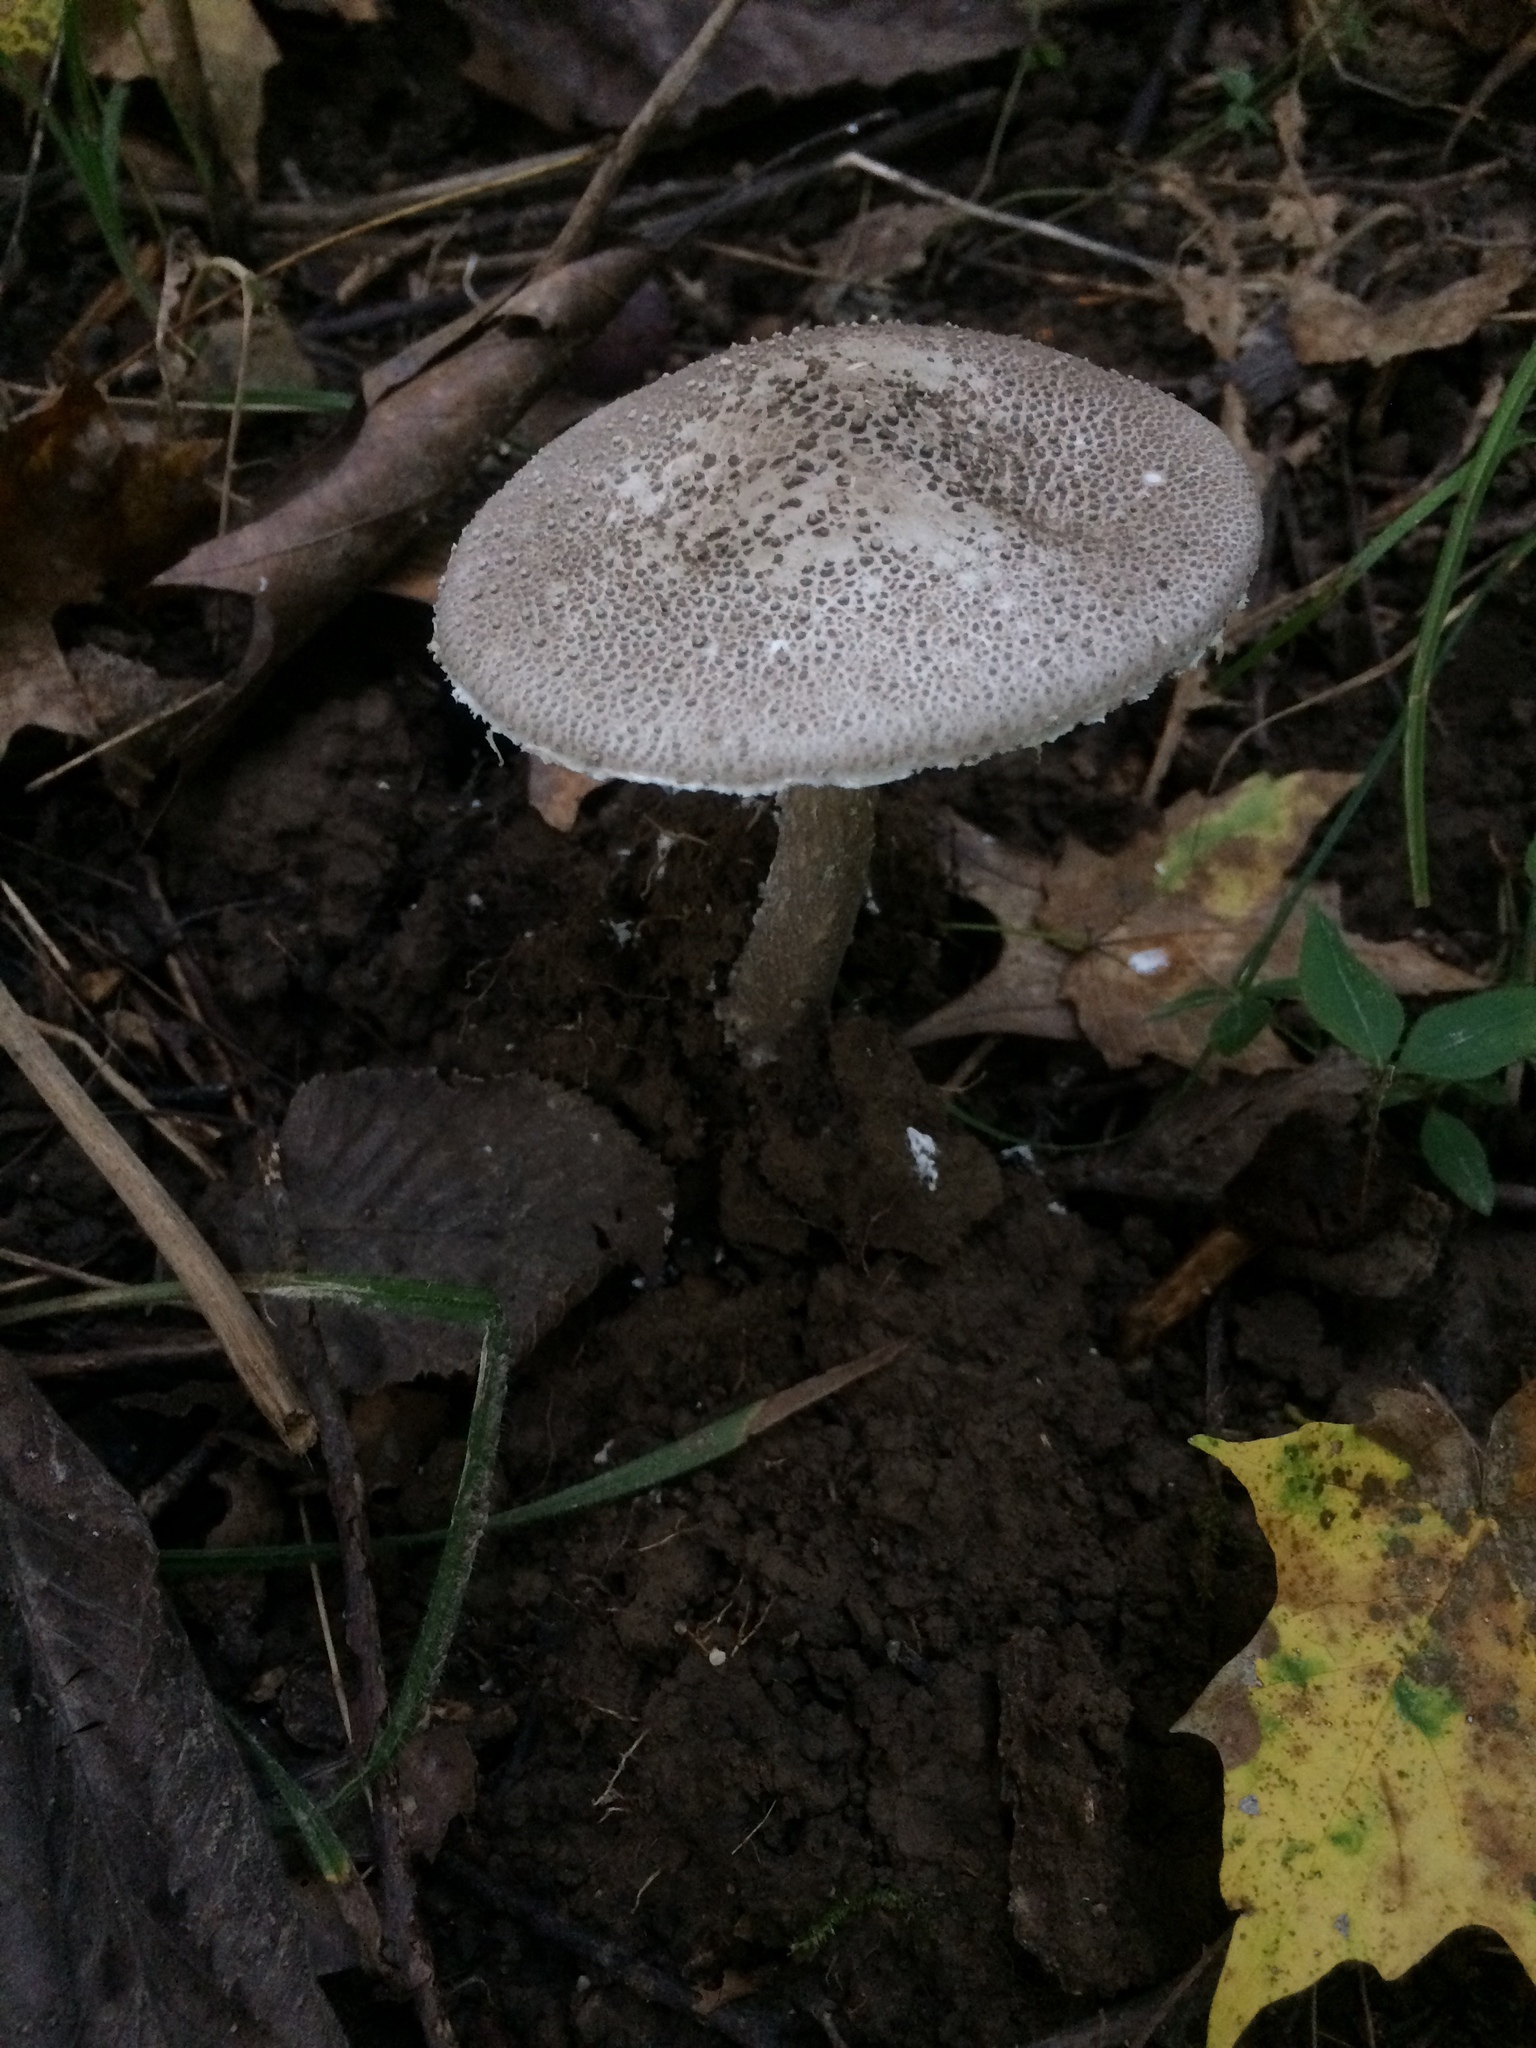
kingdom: Fungi
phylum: Basidiomycota
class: Agaricomycetes
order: Agaricales
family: Amanitaceae
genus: Amanita
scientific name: Amanita onusta
